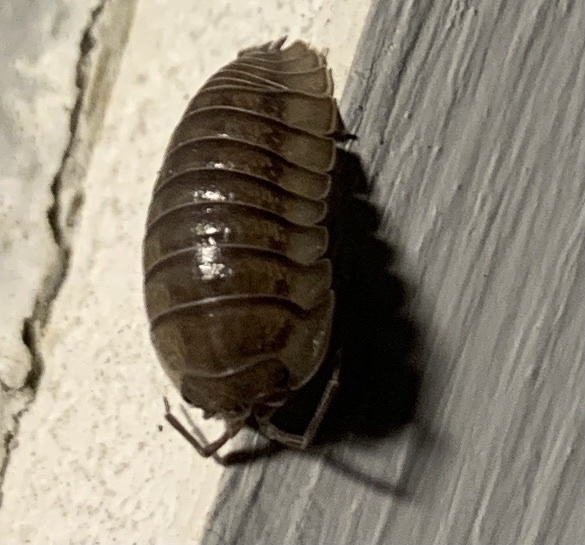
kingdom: Animalia
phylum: Arthropoda
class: Malacostraca
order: Isopoda
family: Armadillidiidae
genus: Armadillidium
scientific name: Armadillidium nasatum
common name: Isopod
